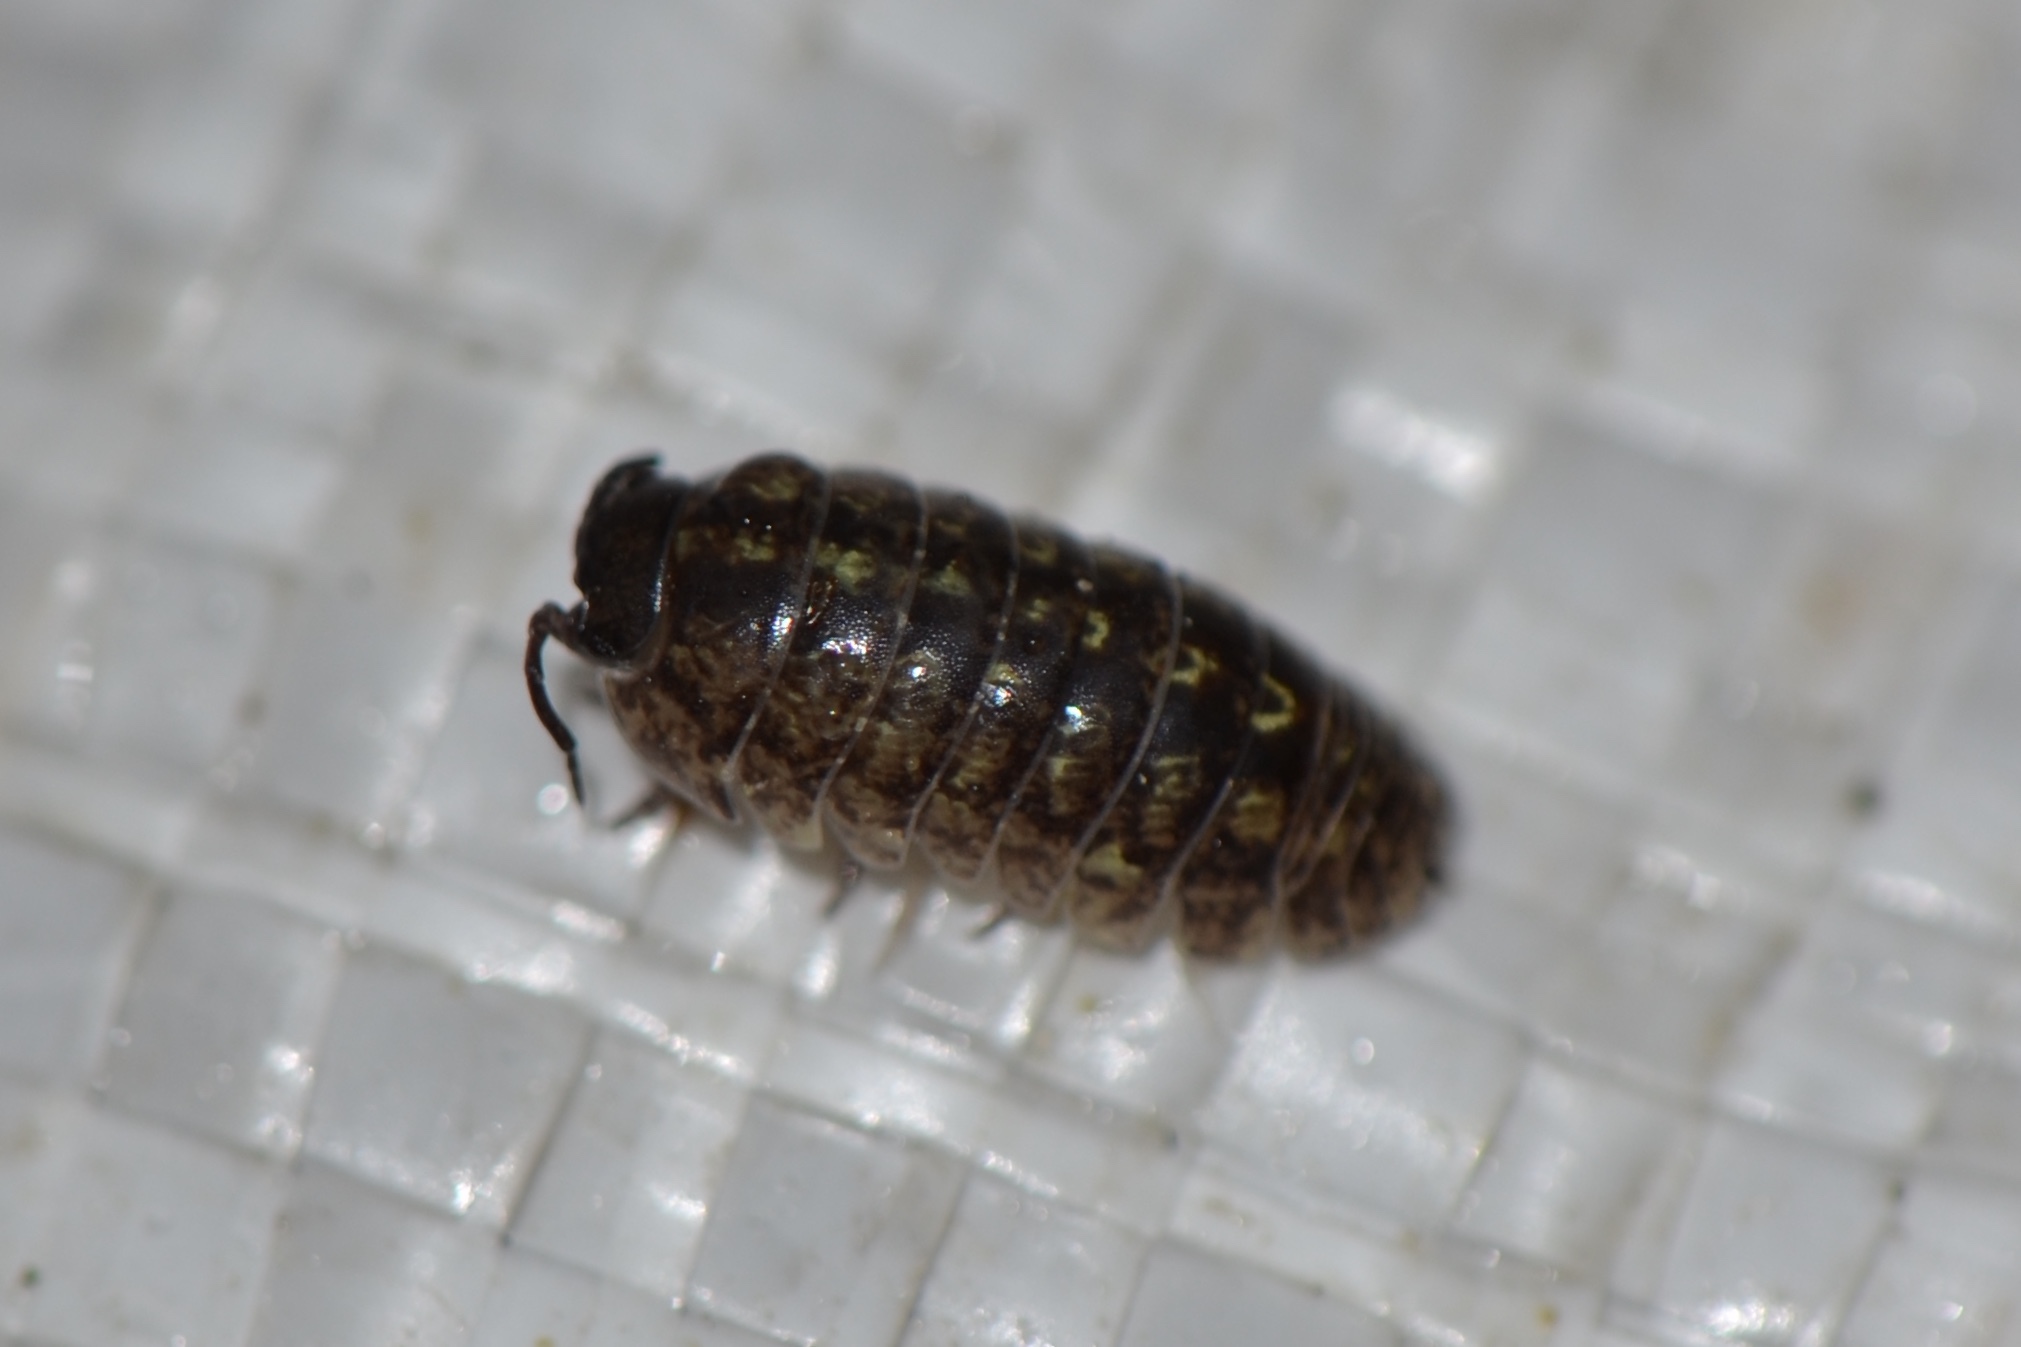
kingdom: Animalia
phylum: Arthropoda
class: Malacostraca
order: Isopoda
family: Armadillidiidae
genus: Armadillidium
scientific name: Armadillidium vulgare
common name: Common pill woodlouse
